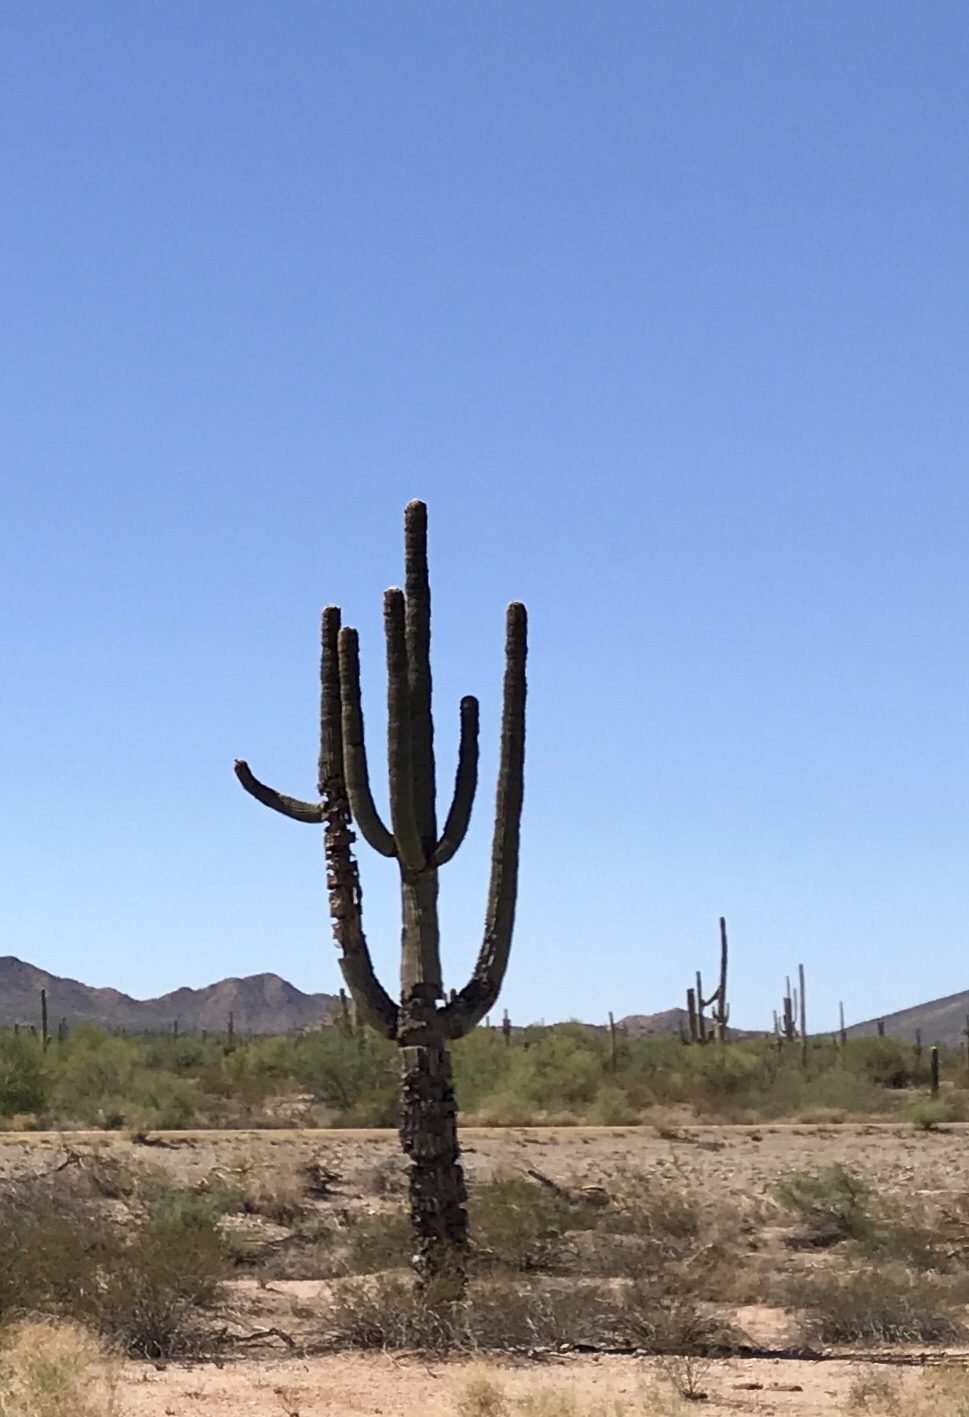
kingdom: Plantae
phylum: Tracheophyta
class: Magnoliopsida
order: Caryophyllales
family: Cactaceae
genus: Carnegiea
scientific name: Carnegiea gigantea
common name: Saguaro
